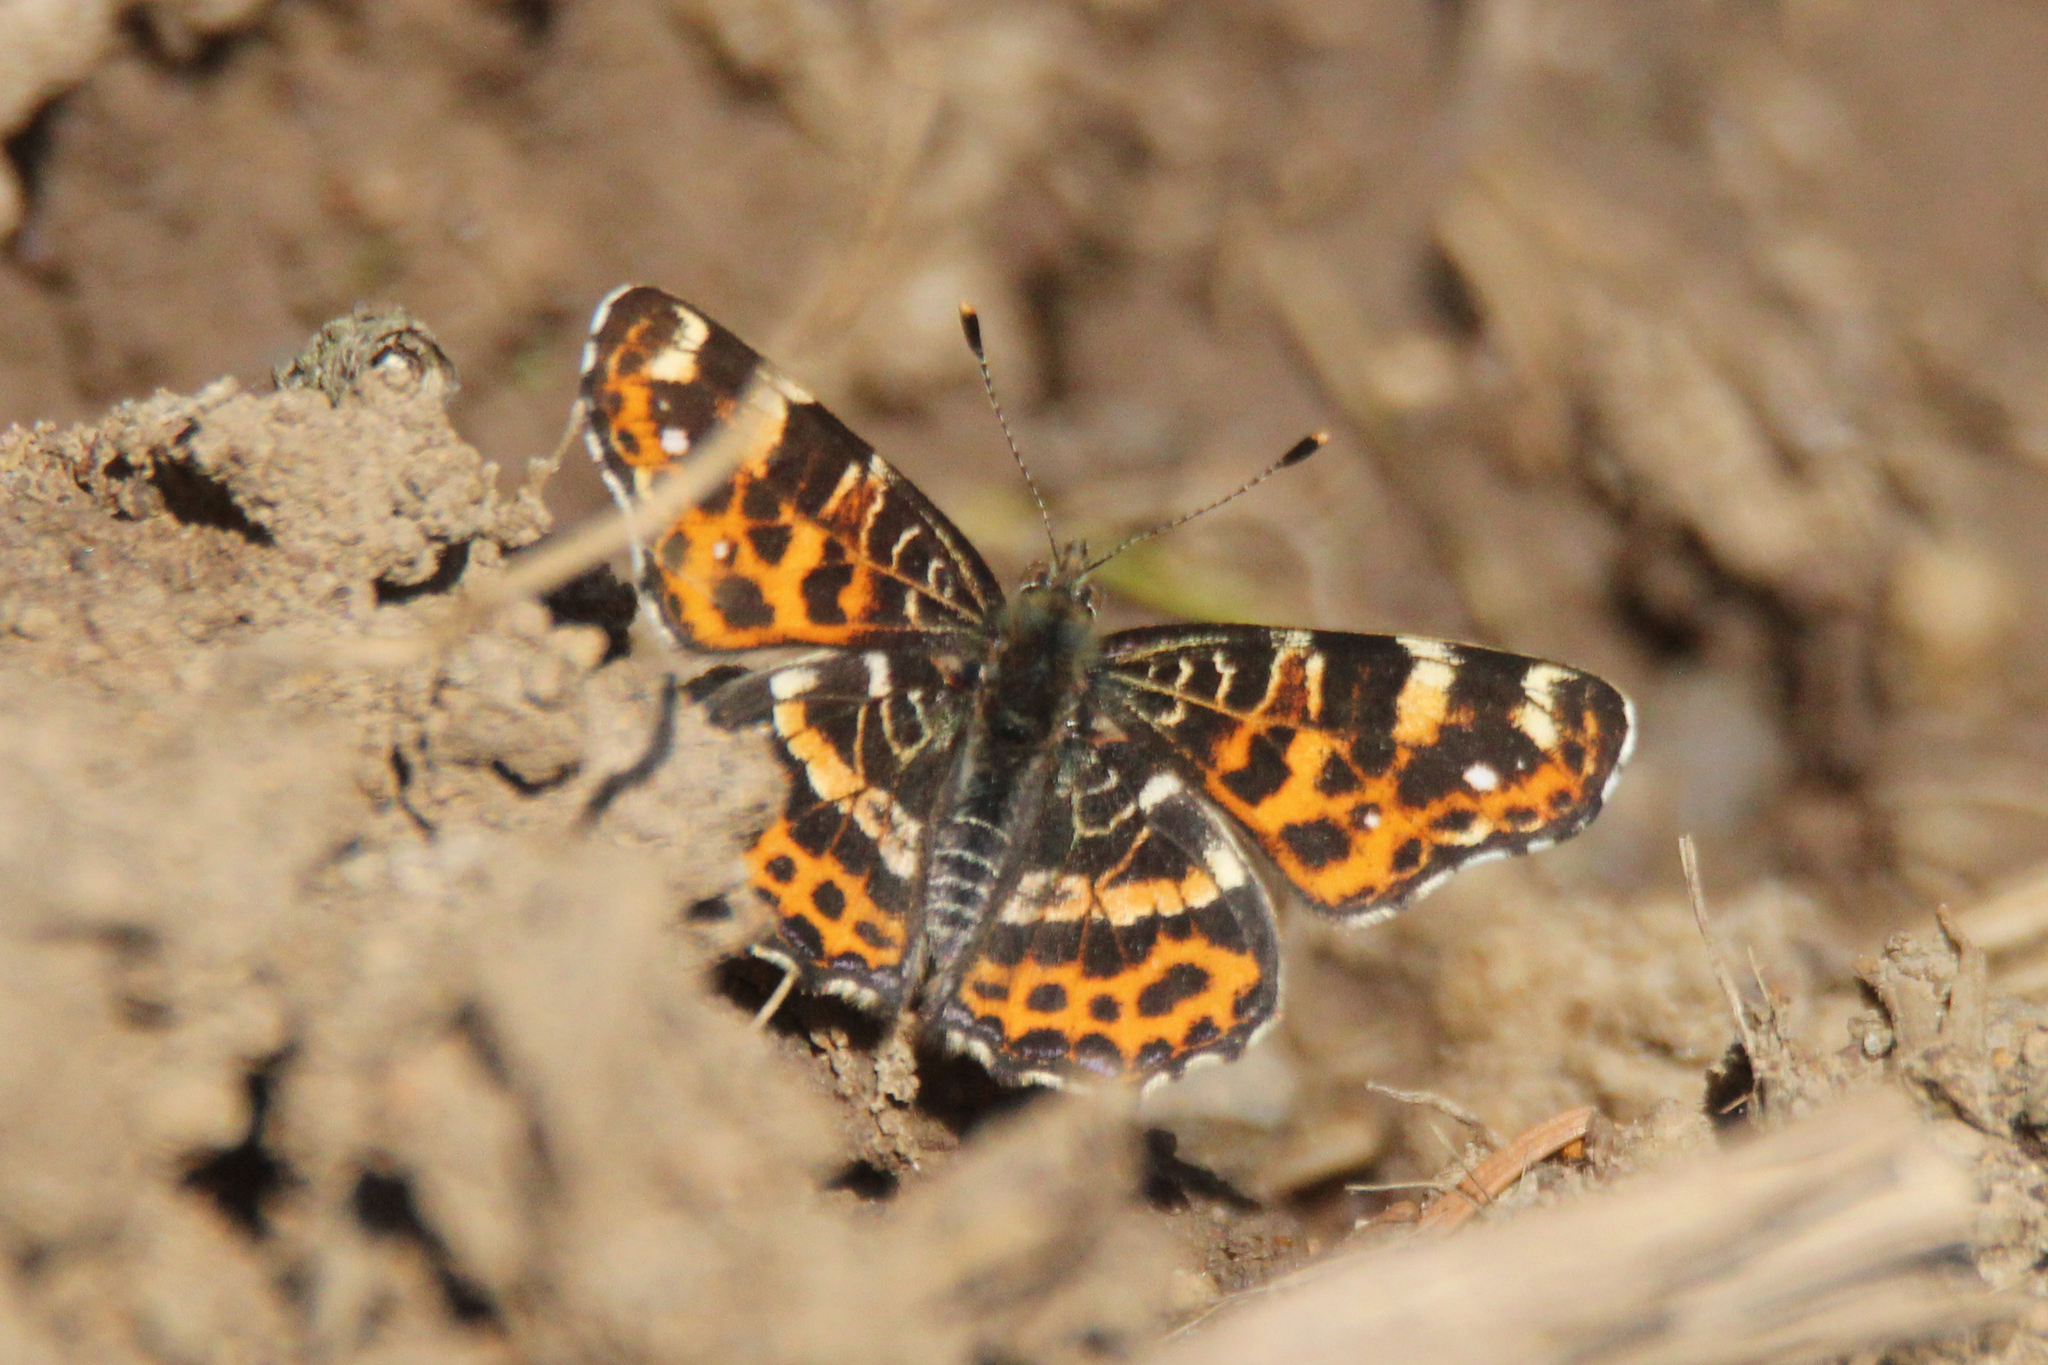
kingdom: Animalia
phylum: Arthropoda
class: Insecta
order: Lepidoptera
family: Nymphalidae
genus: Araschnia
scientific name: Araschnia levana
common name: Map butterfly
